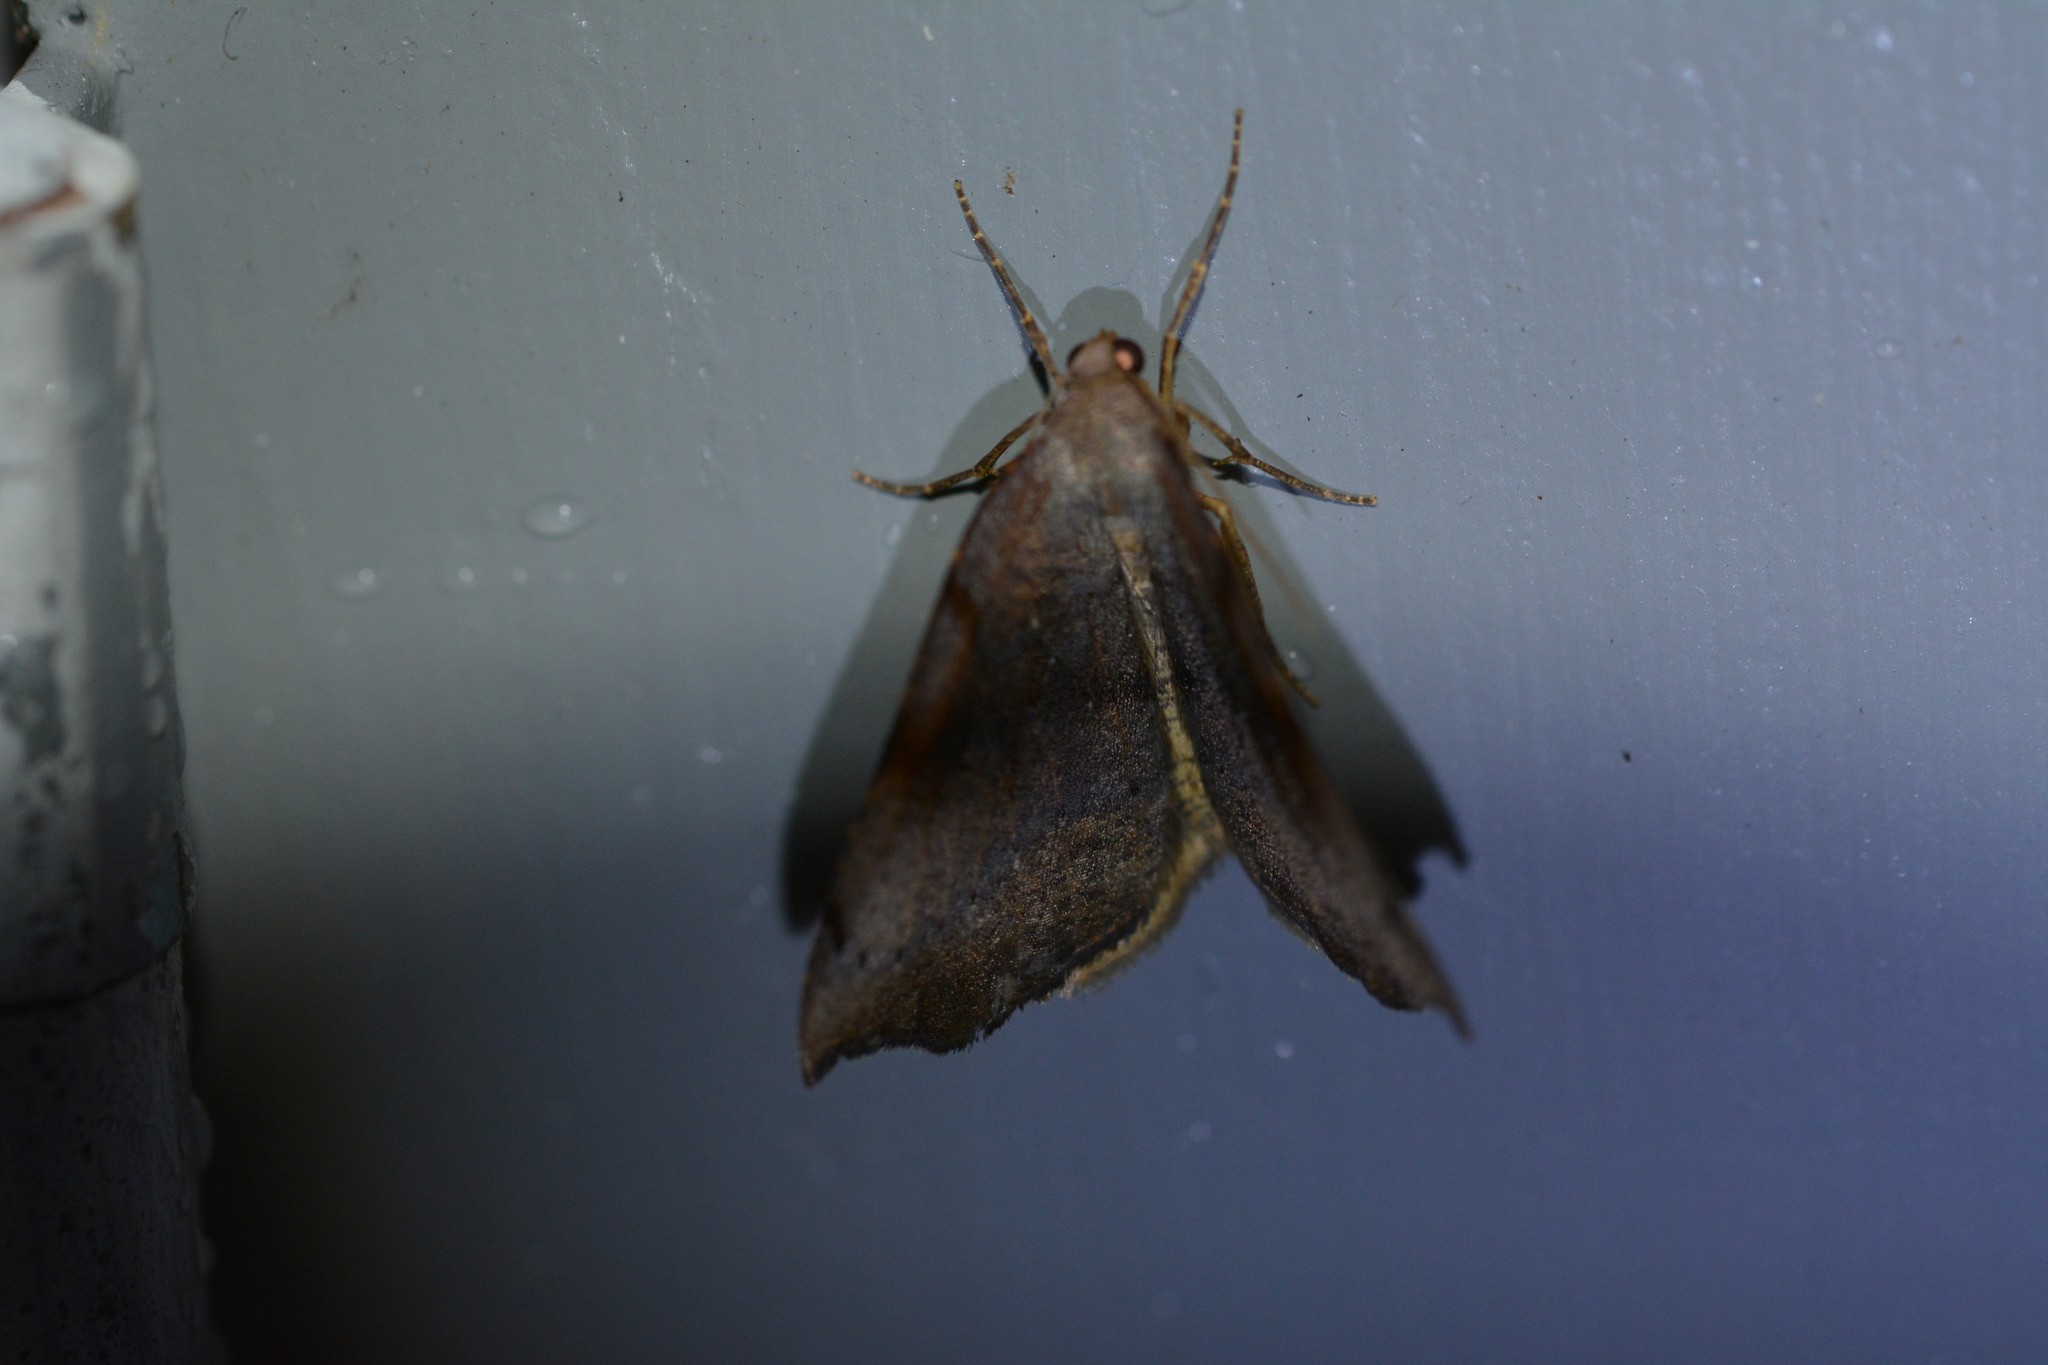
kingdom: Animalia
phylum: Arthropoda
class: Insecta
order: Lepidoptera
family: Geometridae
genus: Sestra
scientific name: Sestra flexata
